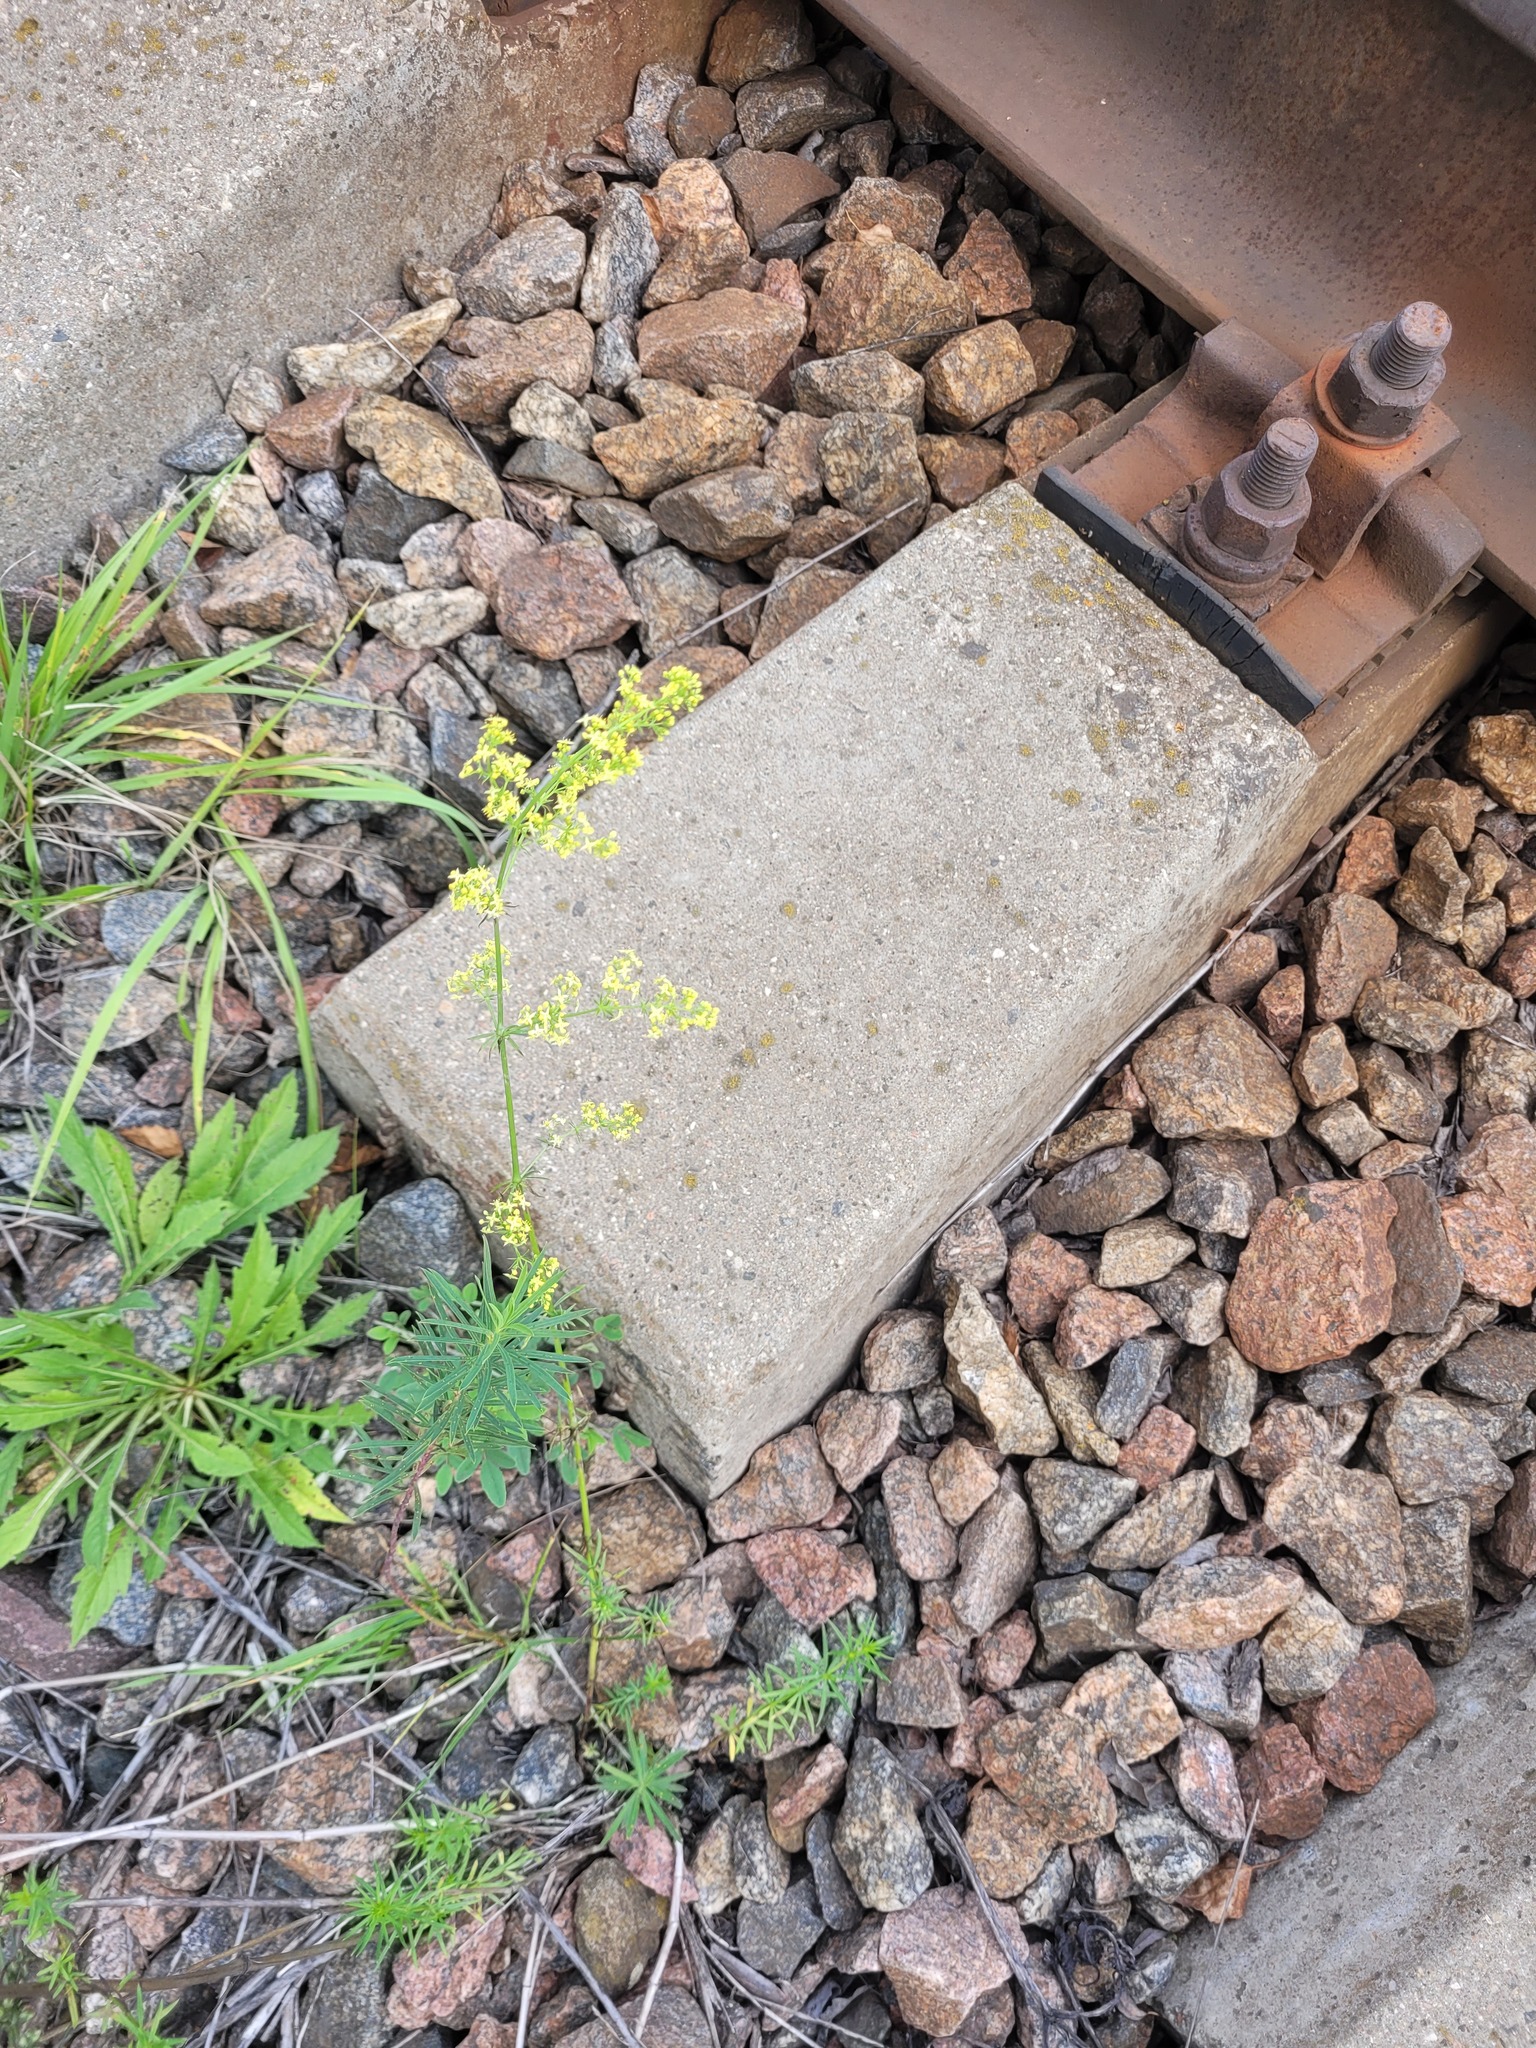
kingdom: Plantae
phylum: Tracheophyta
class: Magnoliopsida
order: Gentianales
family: Rubiaceae
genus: Galium
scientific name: Galium pomeranicum
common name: Bedstraw
